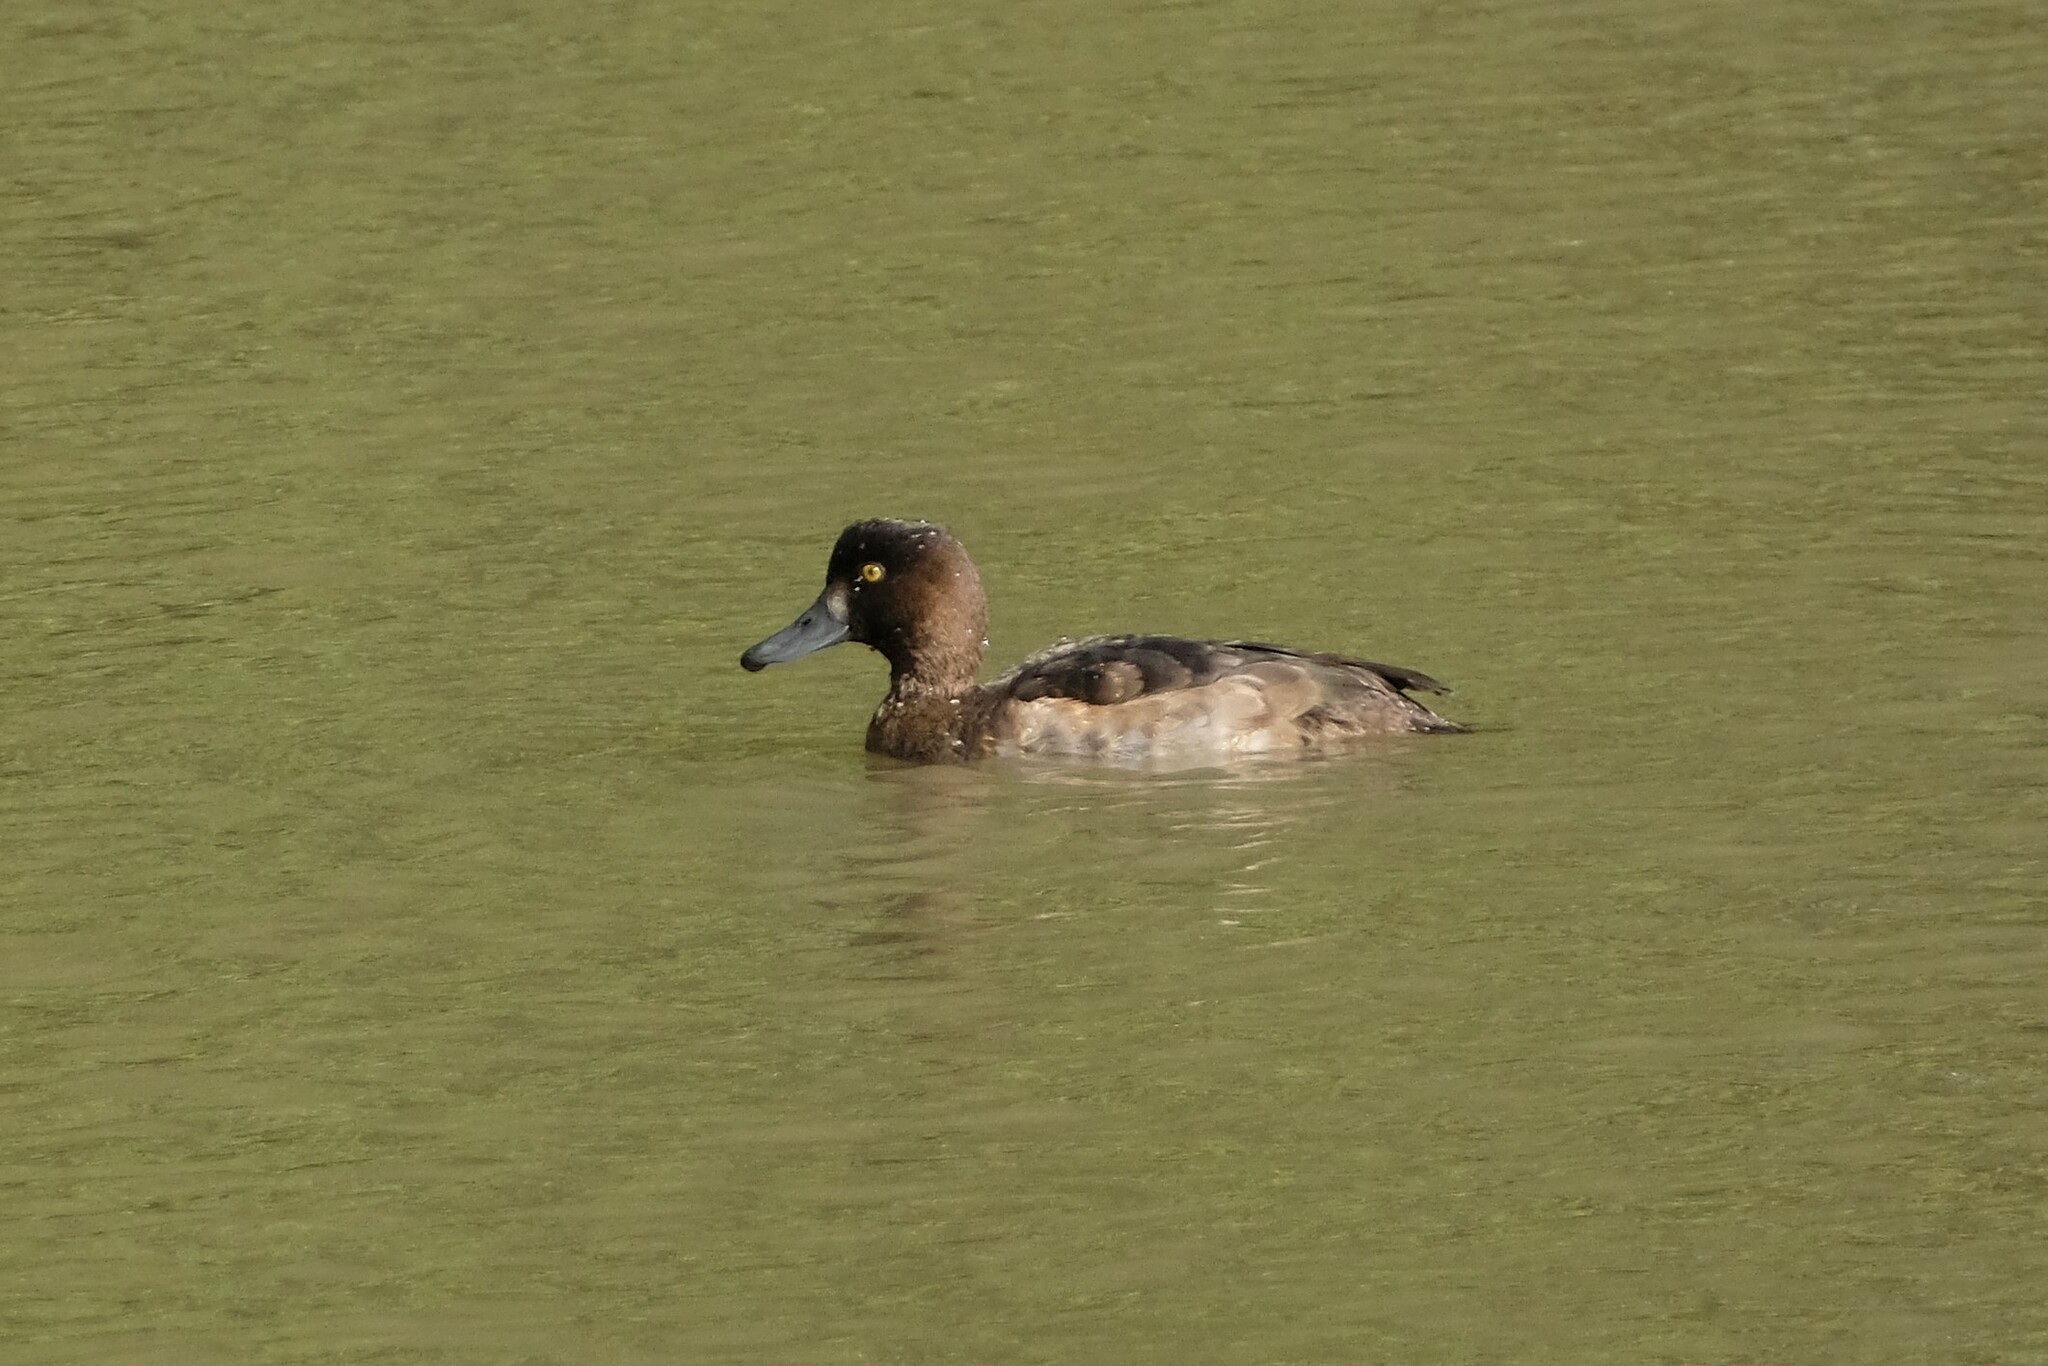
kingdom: Animalia
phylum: Chordata
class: Aves
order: Anseriformes
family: Anatidae
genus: Aythya
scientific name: Aythya fuligula
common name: Tufted duck
